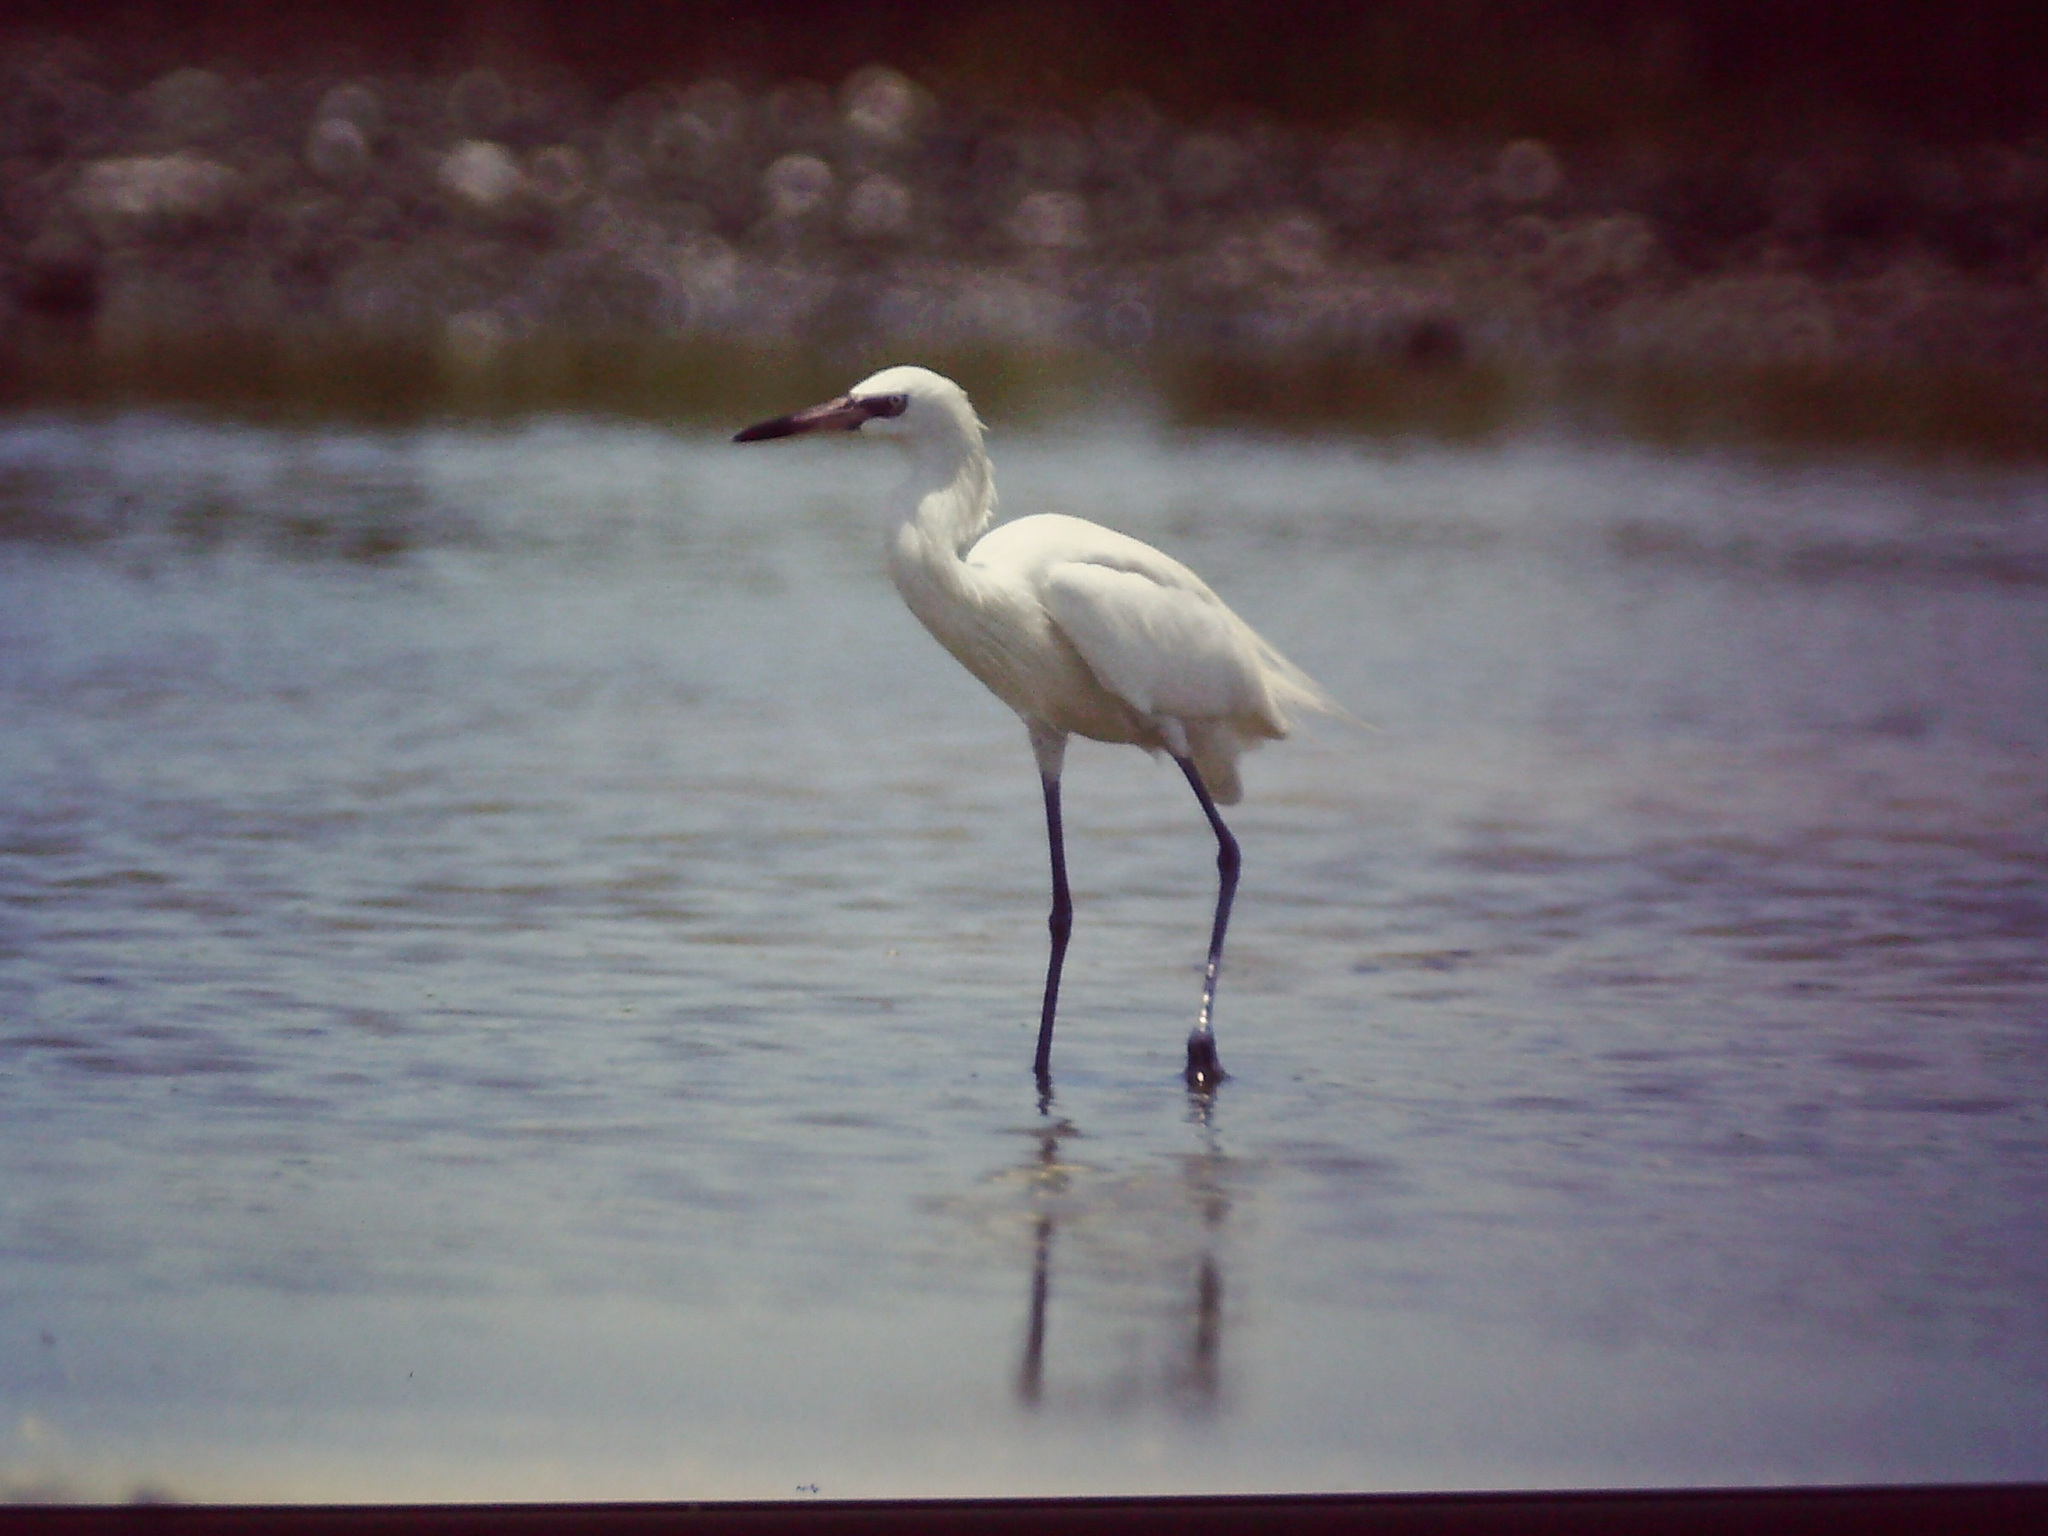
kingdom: Animalia
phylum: Chordata
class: Aves
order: Pelecaniformes
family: Ardeidae
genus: Egretta
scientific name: Egretta rufescens
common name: Reddish egret
